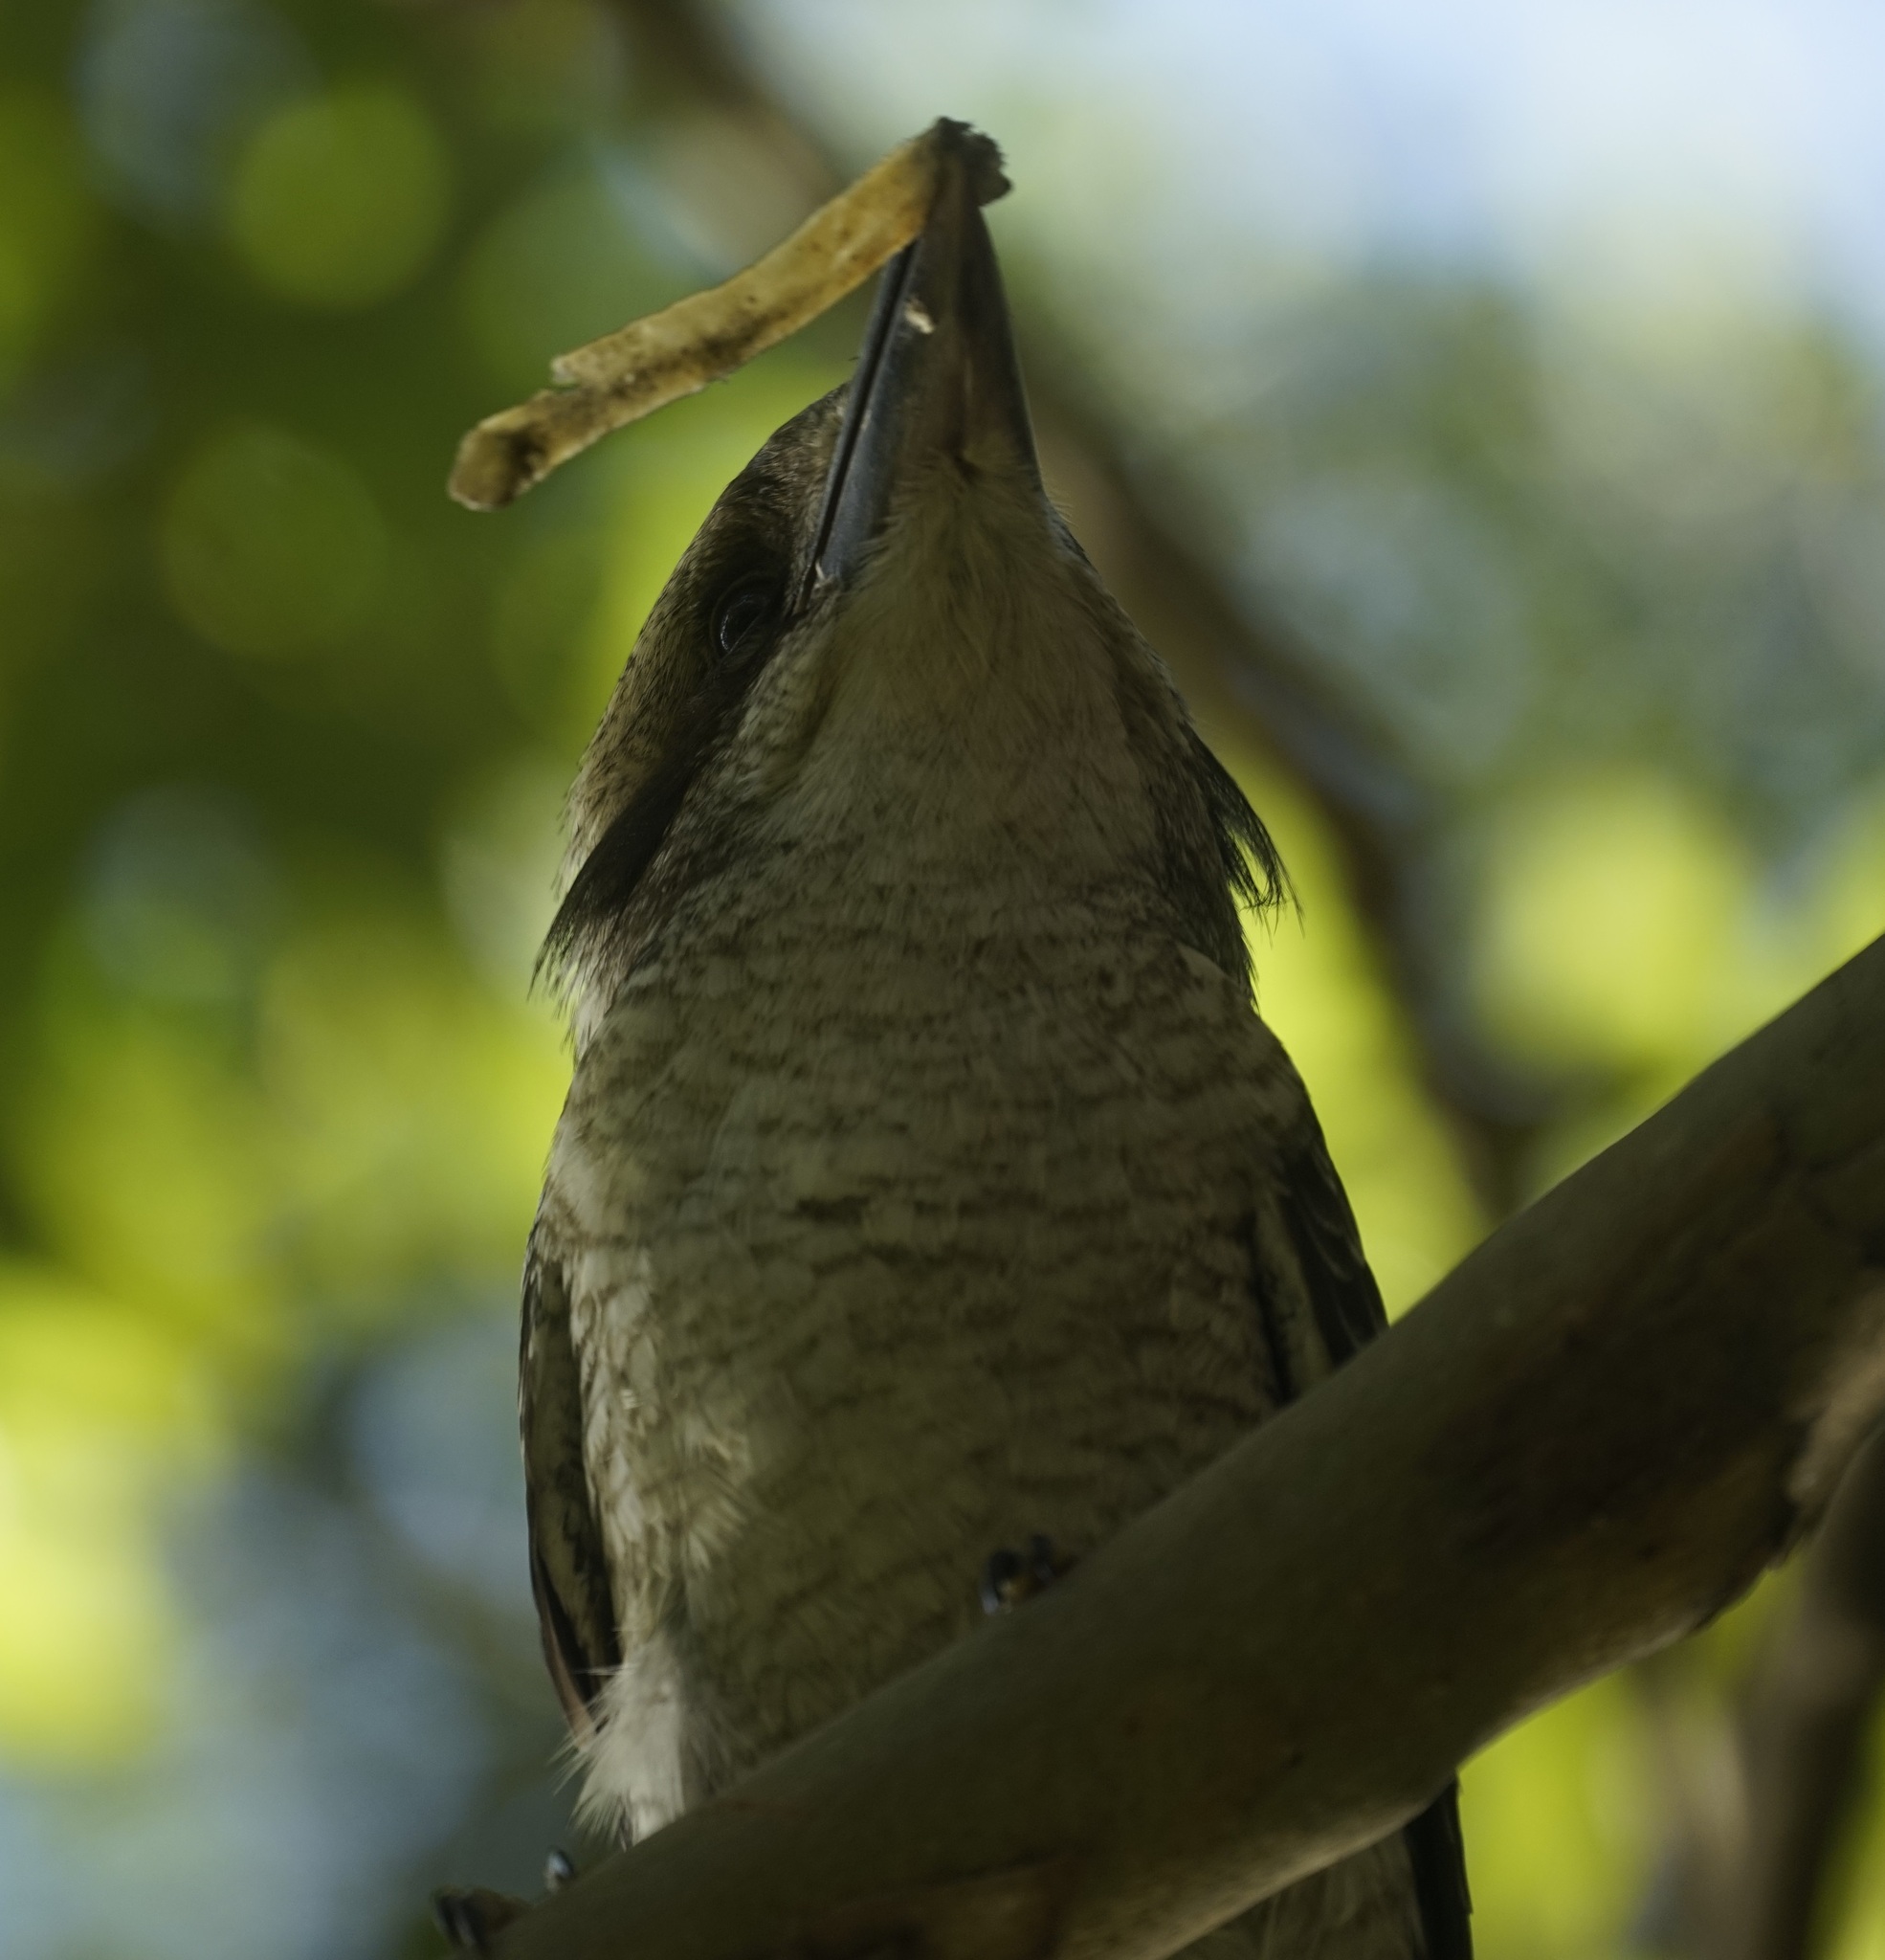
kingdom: Animalia
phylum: Chordata
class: Aves
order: Coraciiformes
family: Alcedinidae
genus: Dacelo
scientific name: Dacelo novaeguineae
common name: Laughing kookaburra
